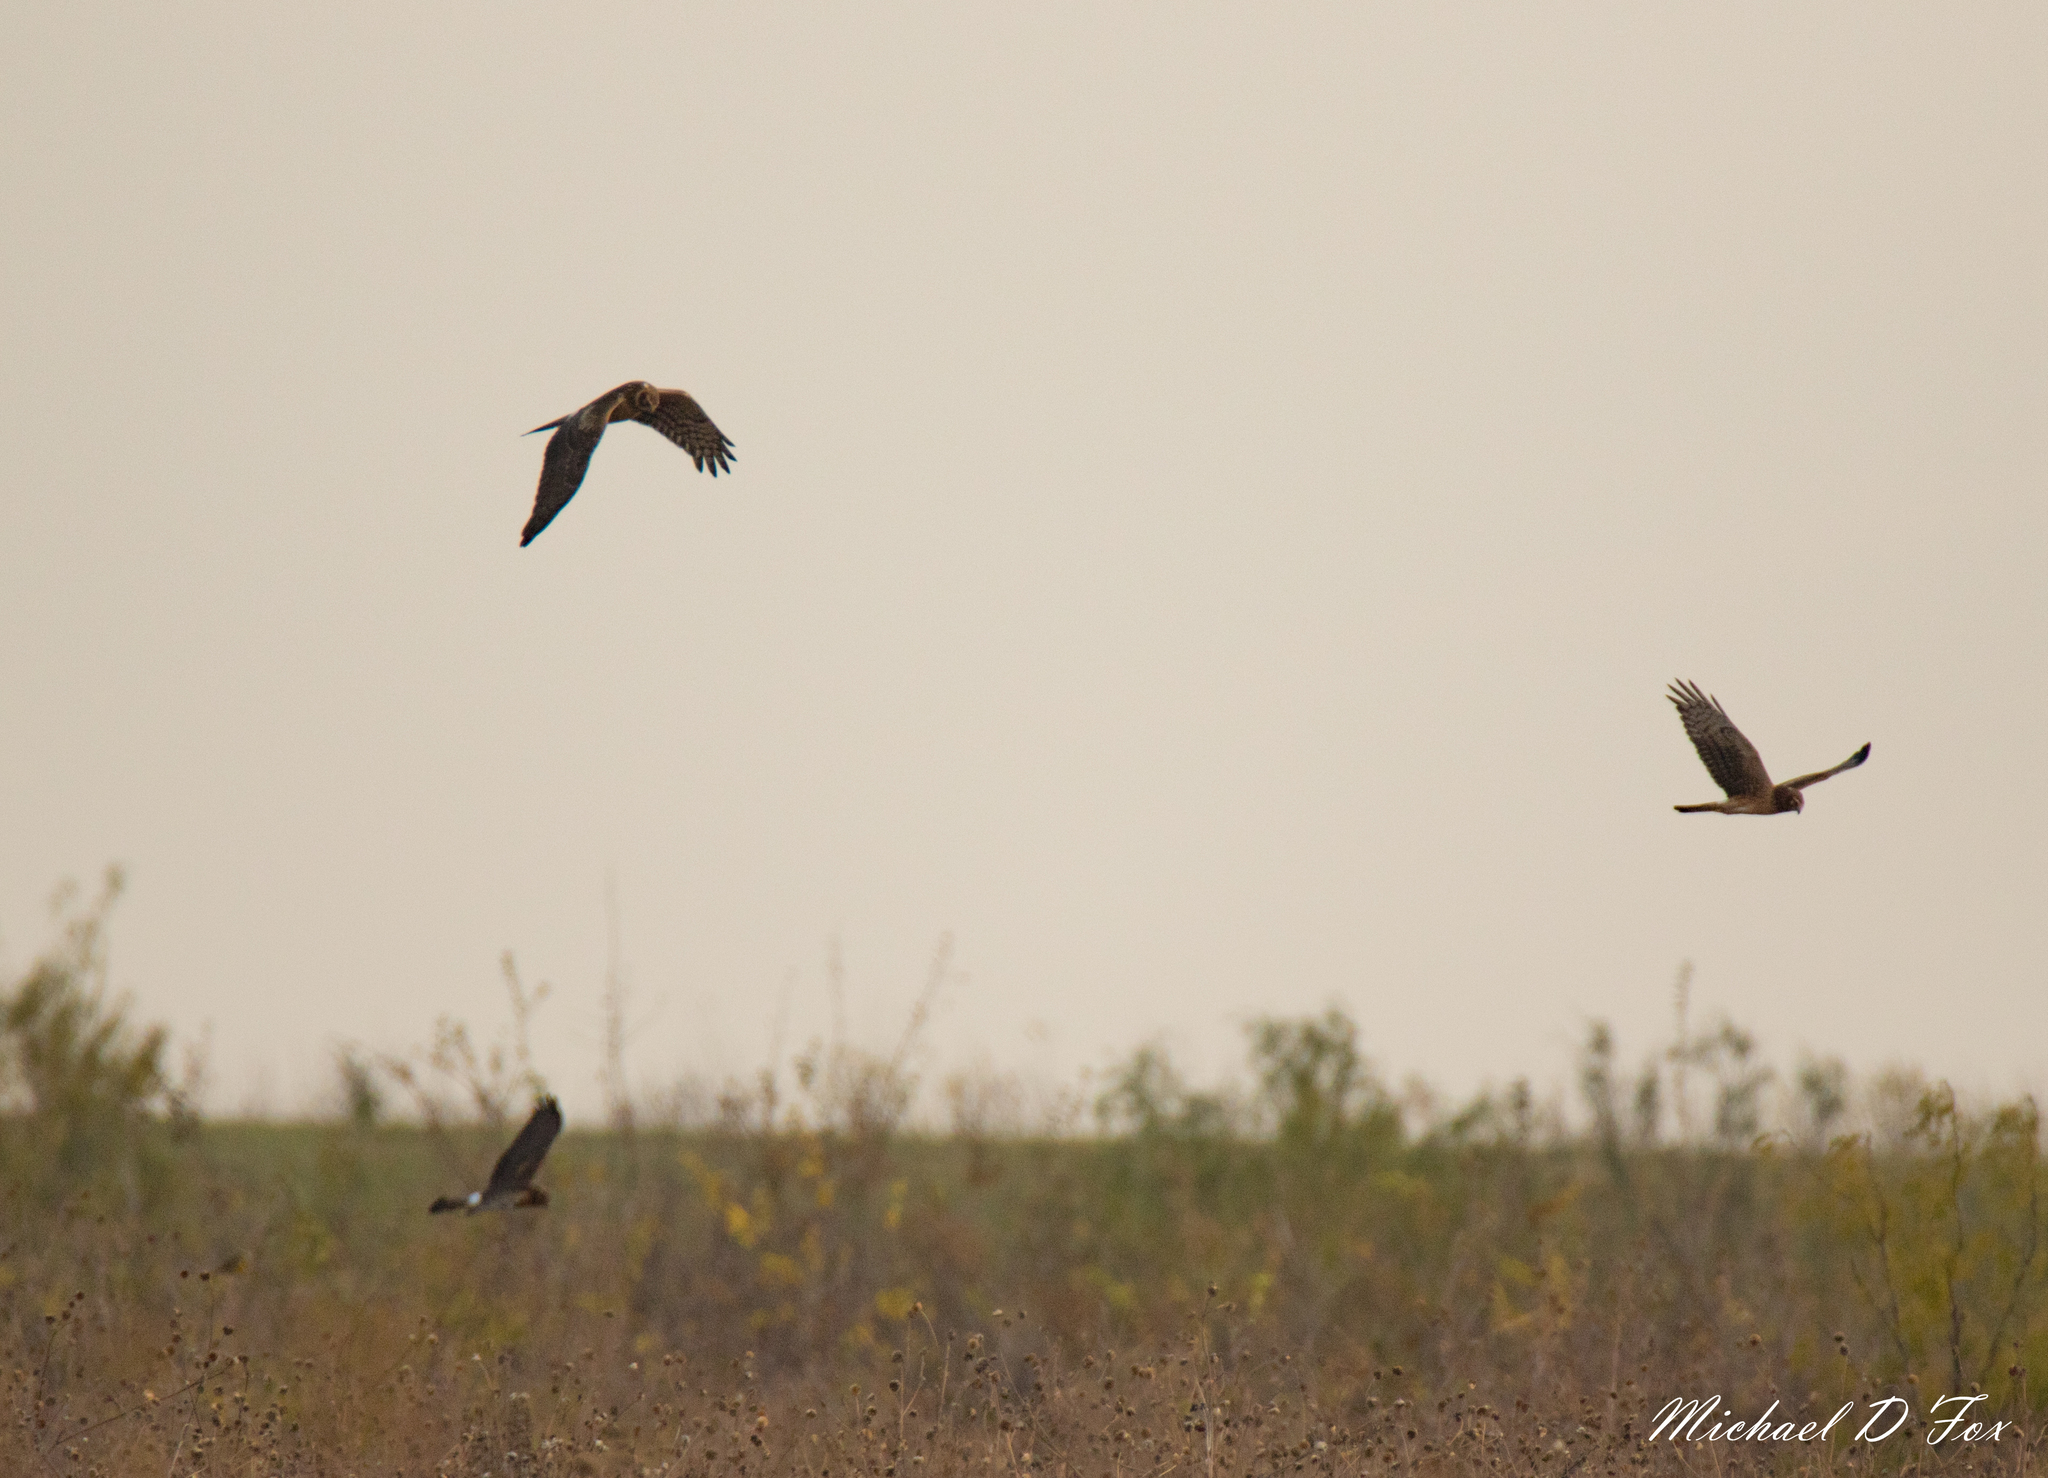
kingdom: Animalia
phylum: Chordata
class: Aves
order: Accipitriformes
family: Accipitridae
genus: Circus
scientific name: Circus cyaneus
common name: Hen harrier
